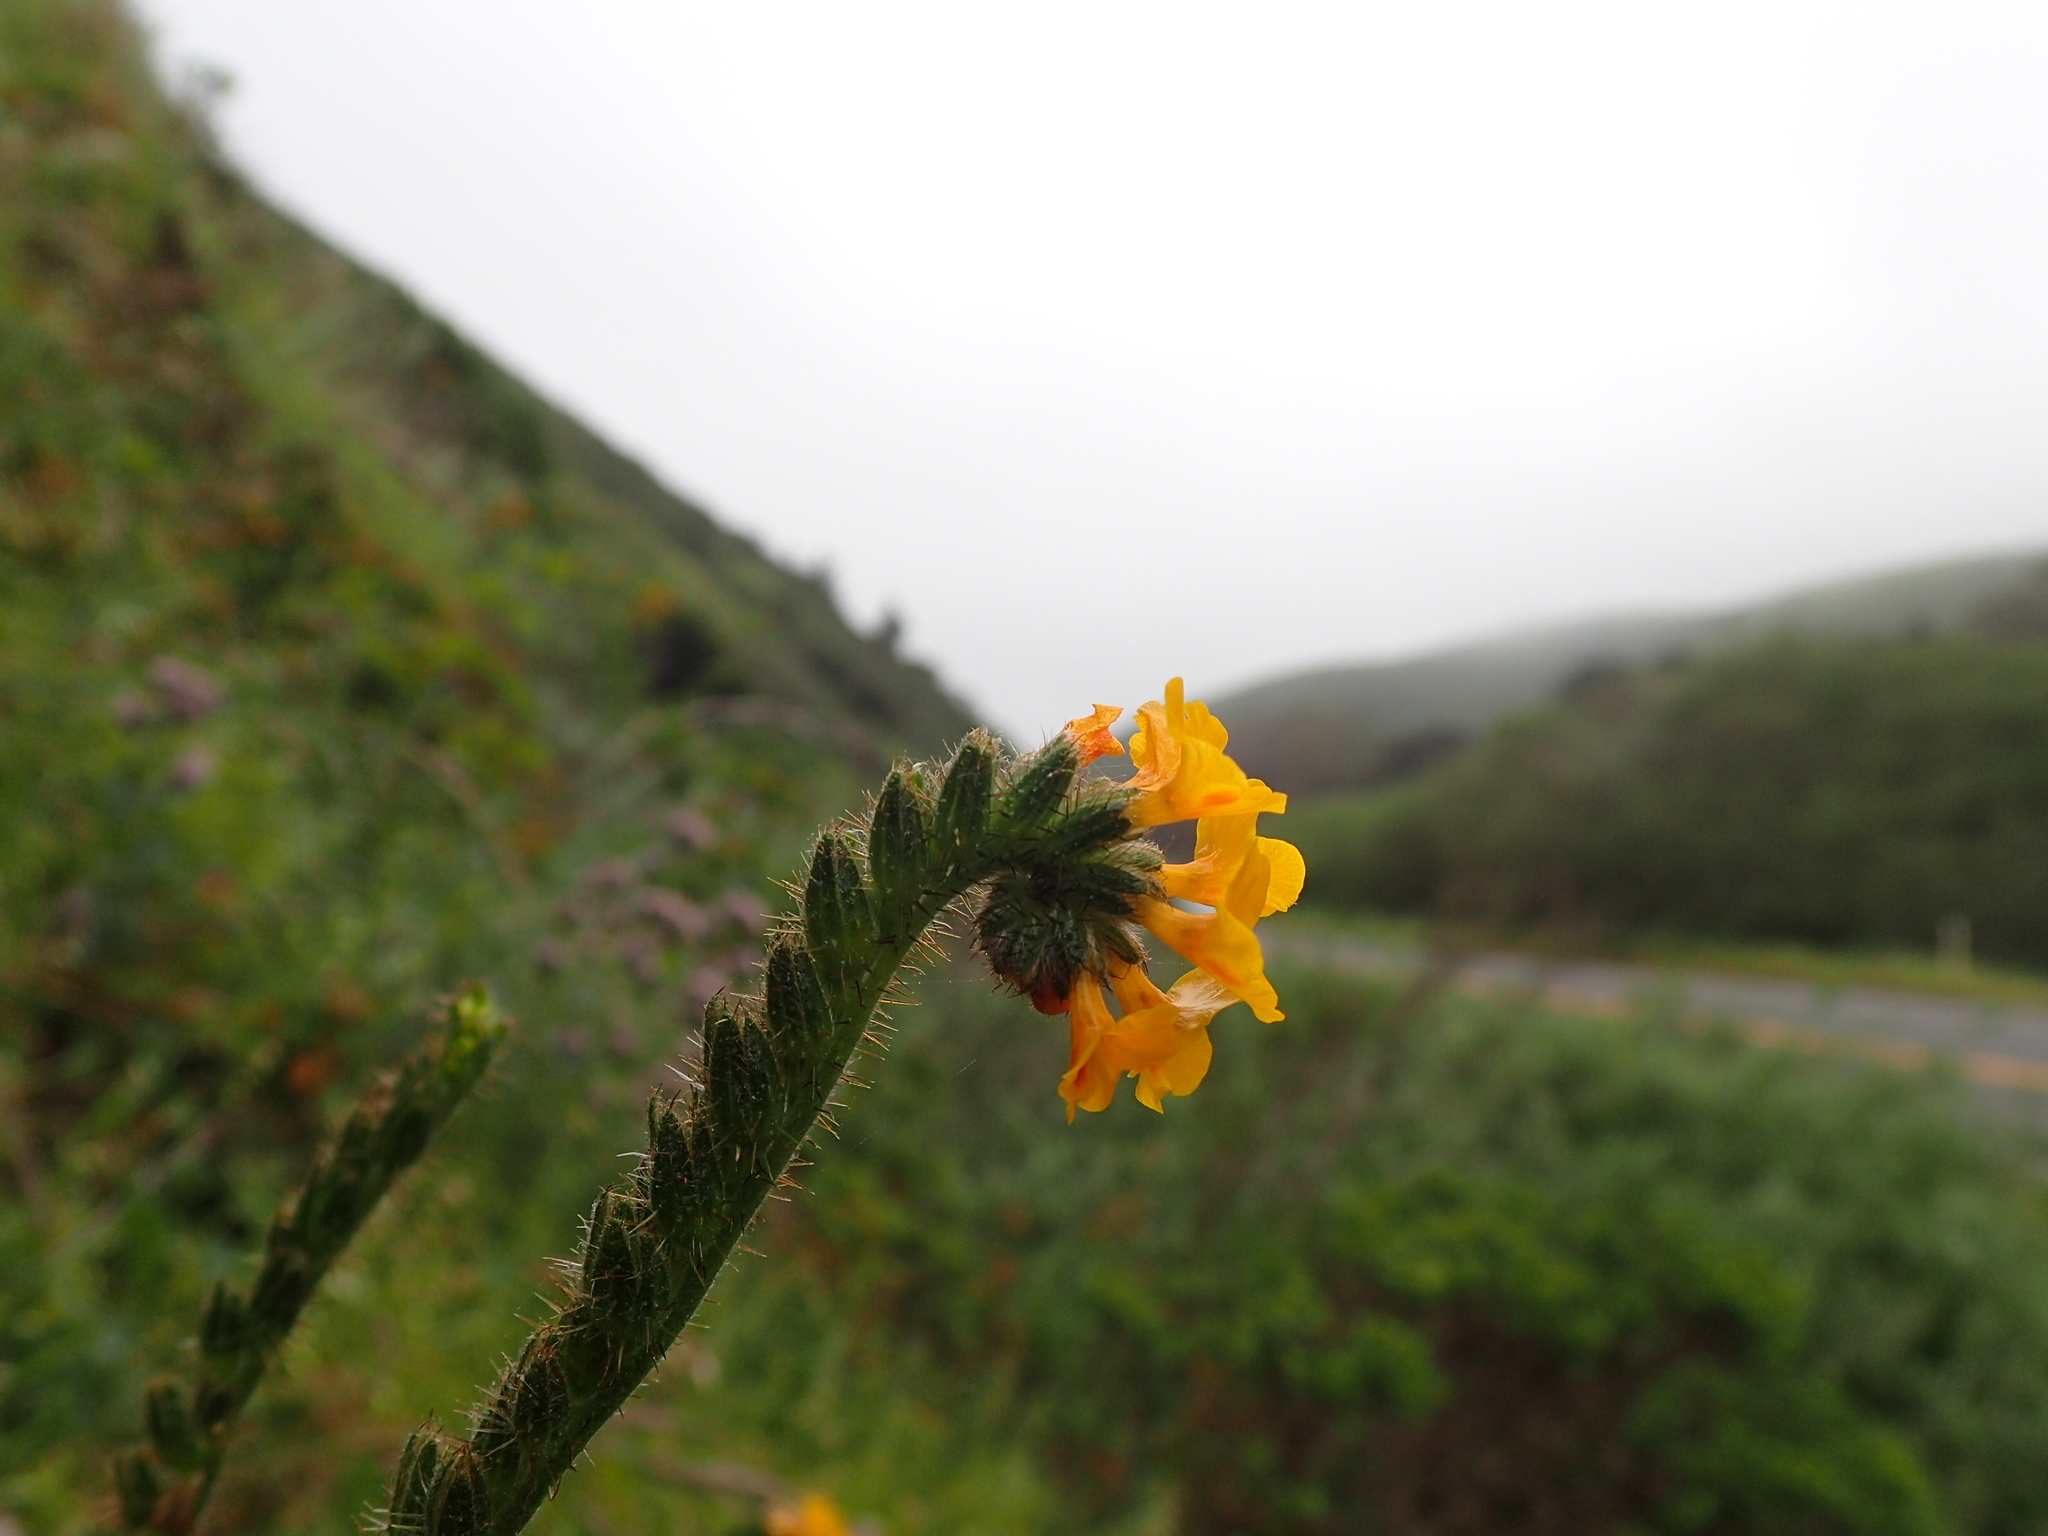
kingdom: Plantae
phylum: Tracheophyta
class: Magnoliopsida
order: Boraginales
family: Boraginaceae
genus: Amsinckia
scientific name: Amsinckia lunaris
